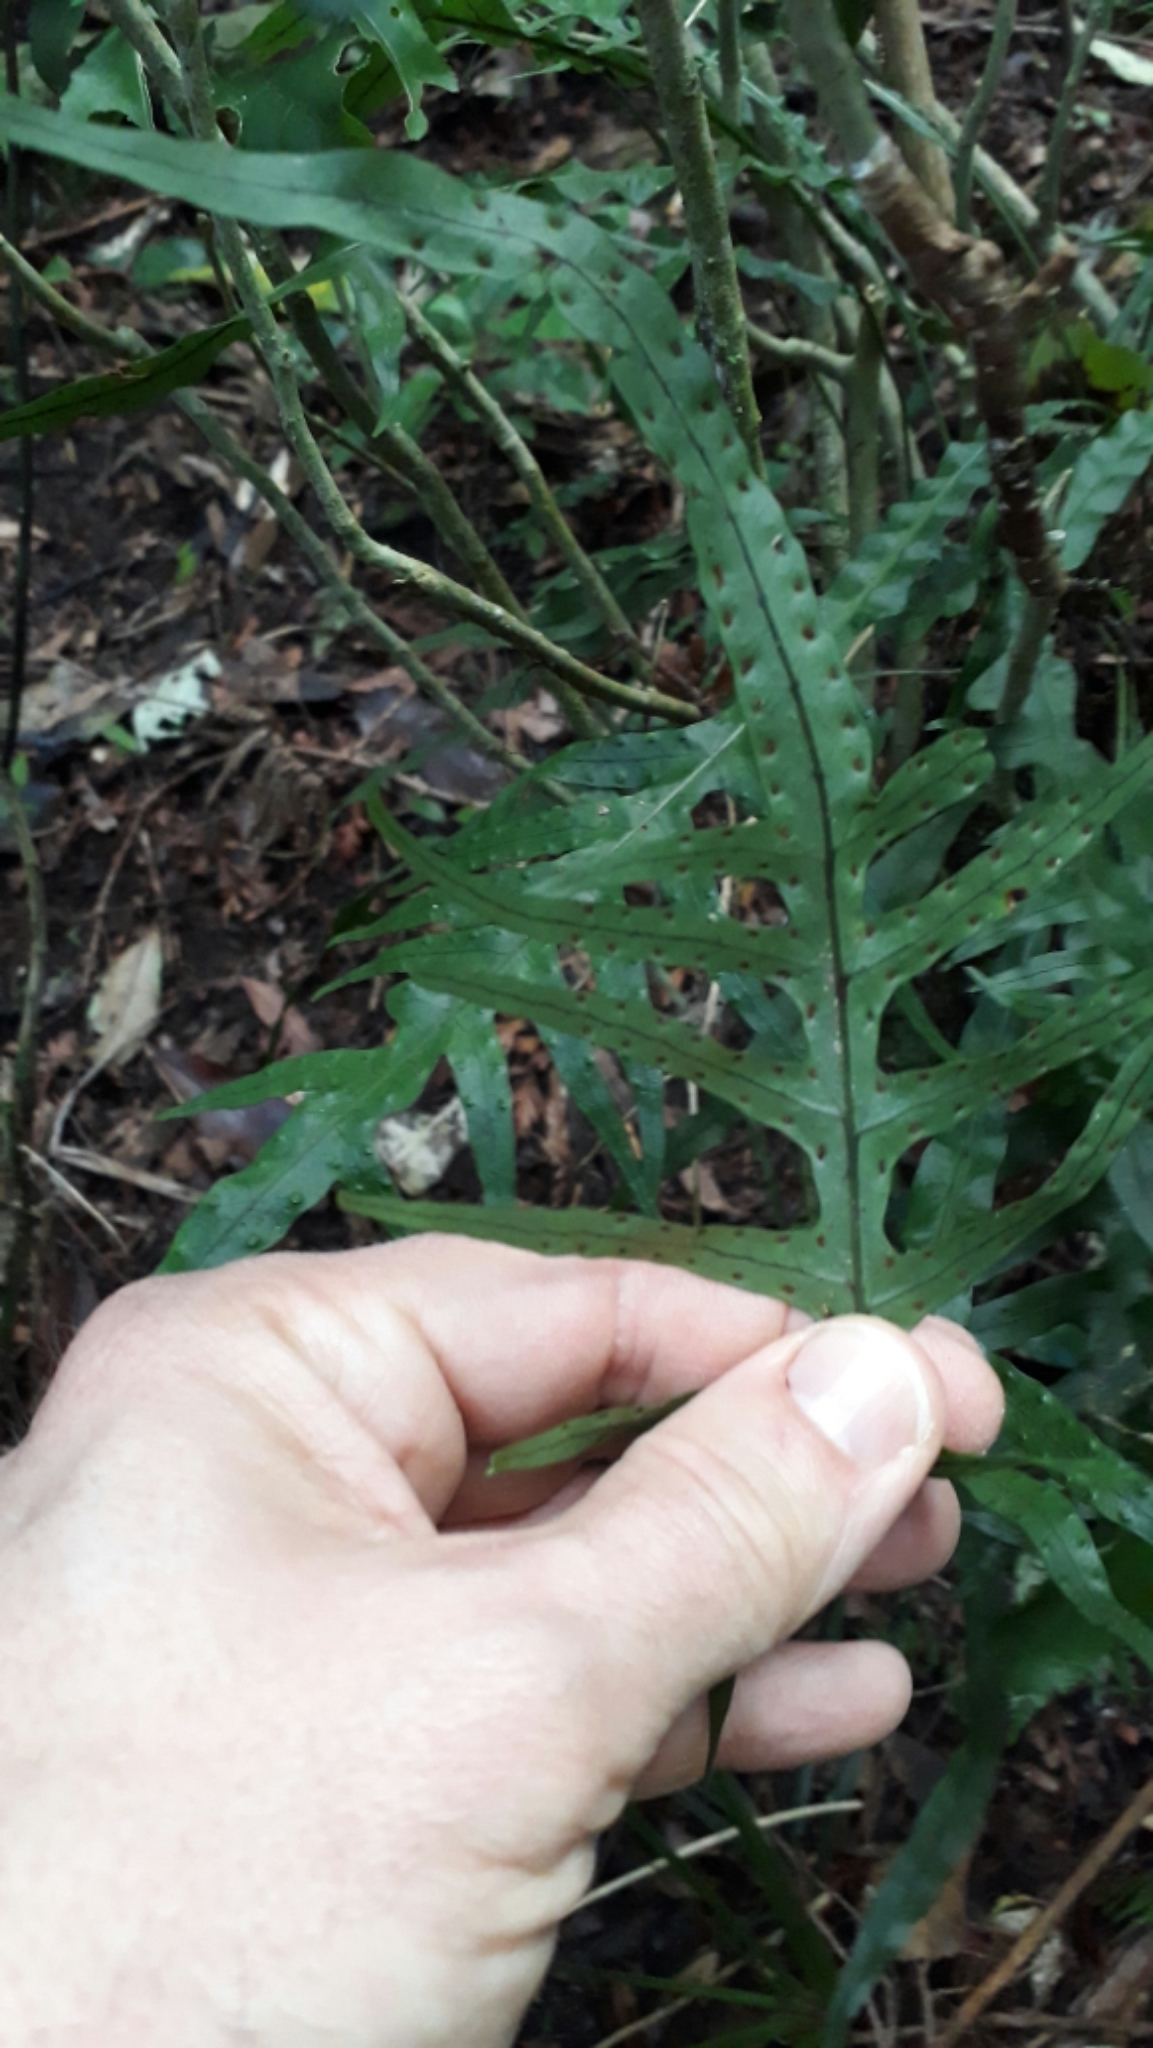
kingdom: Plantae
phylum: Tracheophyta
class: Polypodiopsida
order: Polypodiales
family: Polypodiaceae
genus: Lecanopteris
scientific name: Lecanopteris scandens
